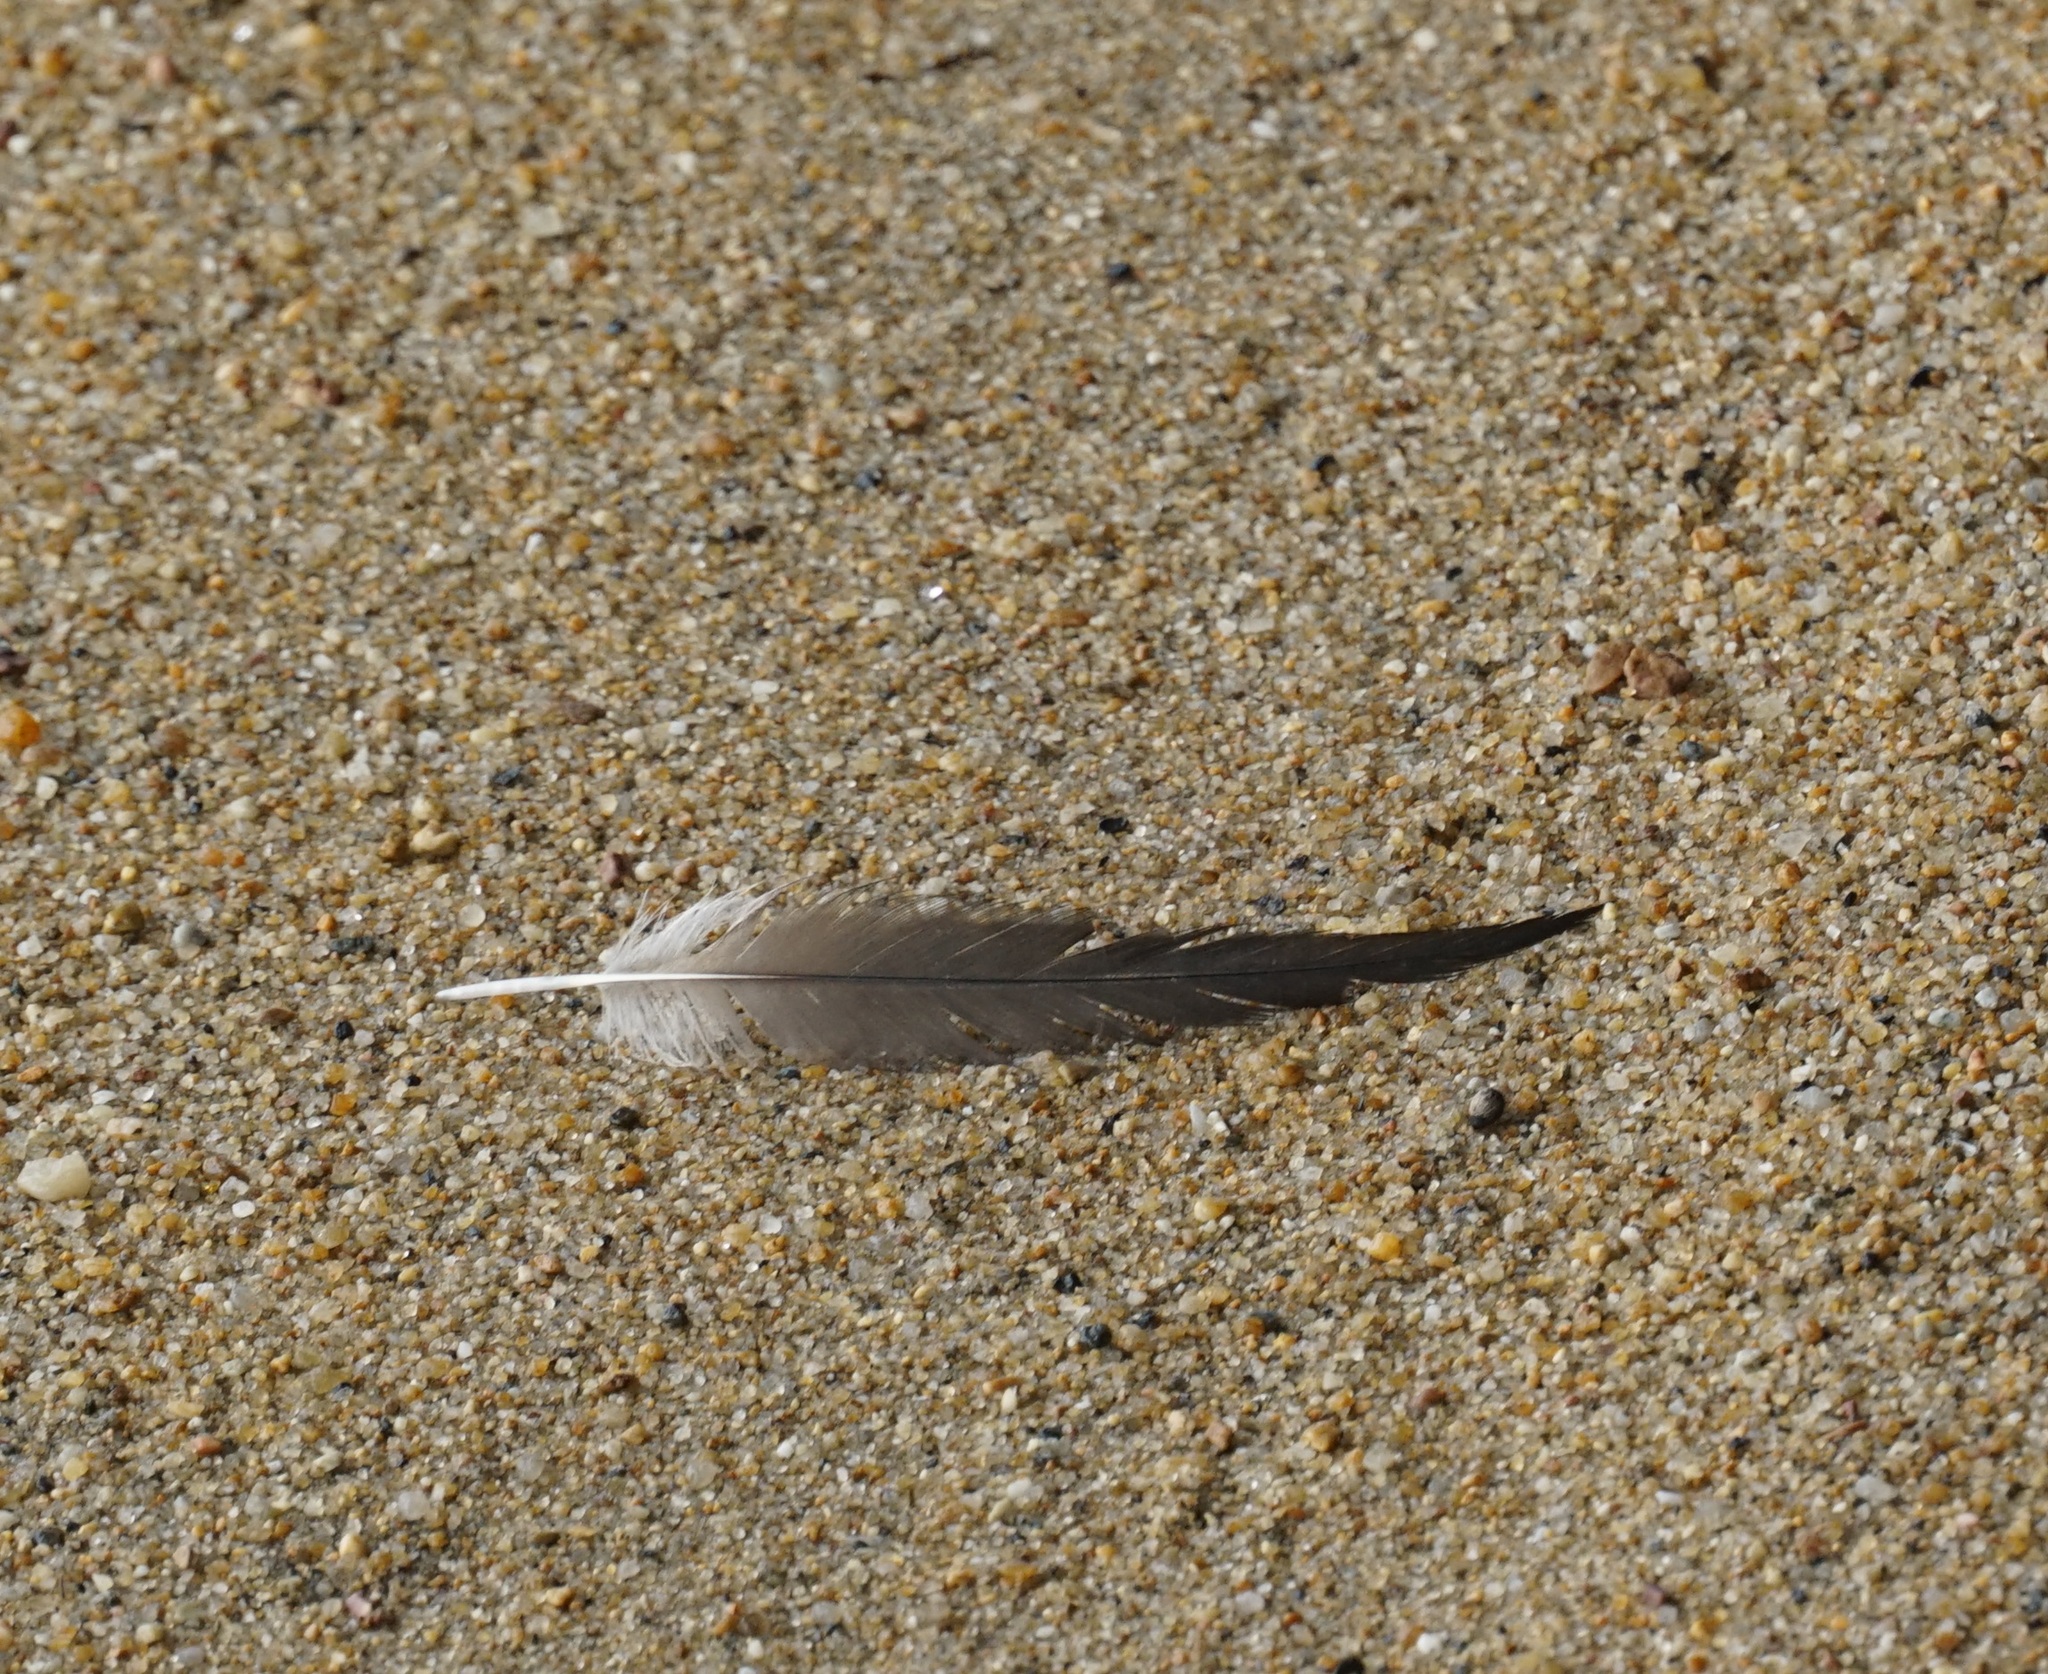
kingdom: Animalia
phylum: Chordata
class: Aves
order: Pelecaniformes
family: Pelecanidae
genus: Pelecanus
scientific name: Pelecanus conspicillatus
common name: Australian pelican
